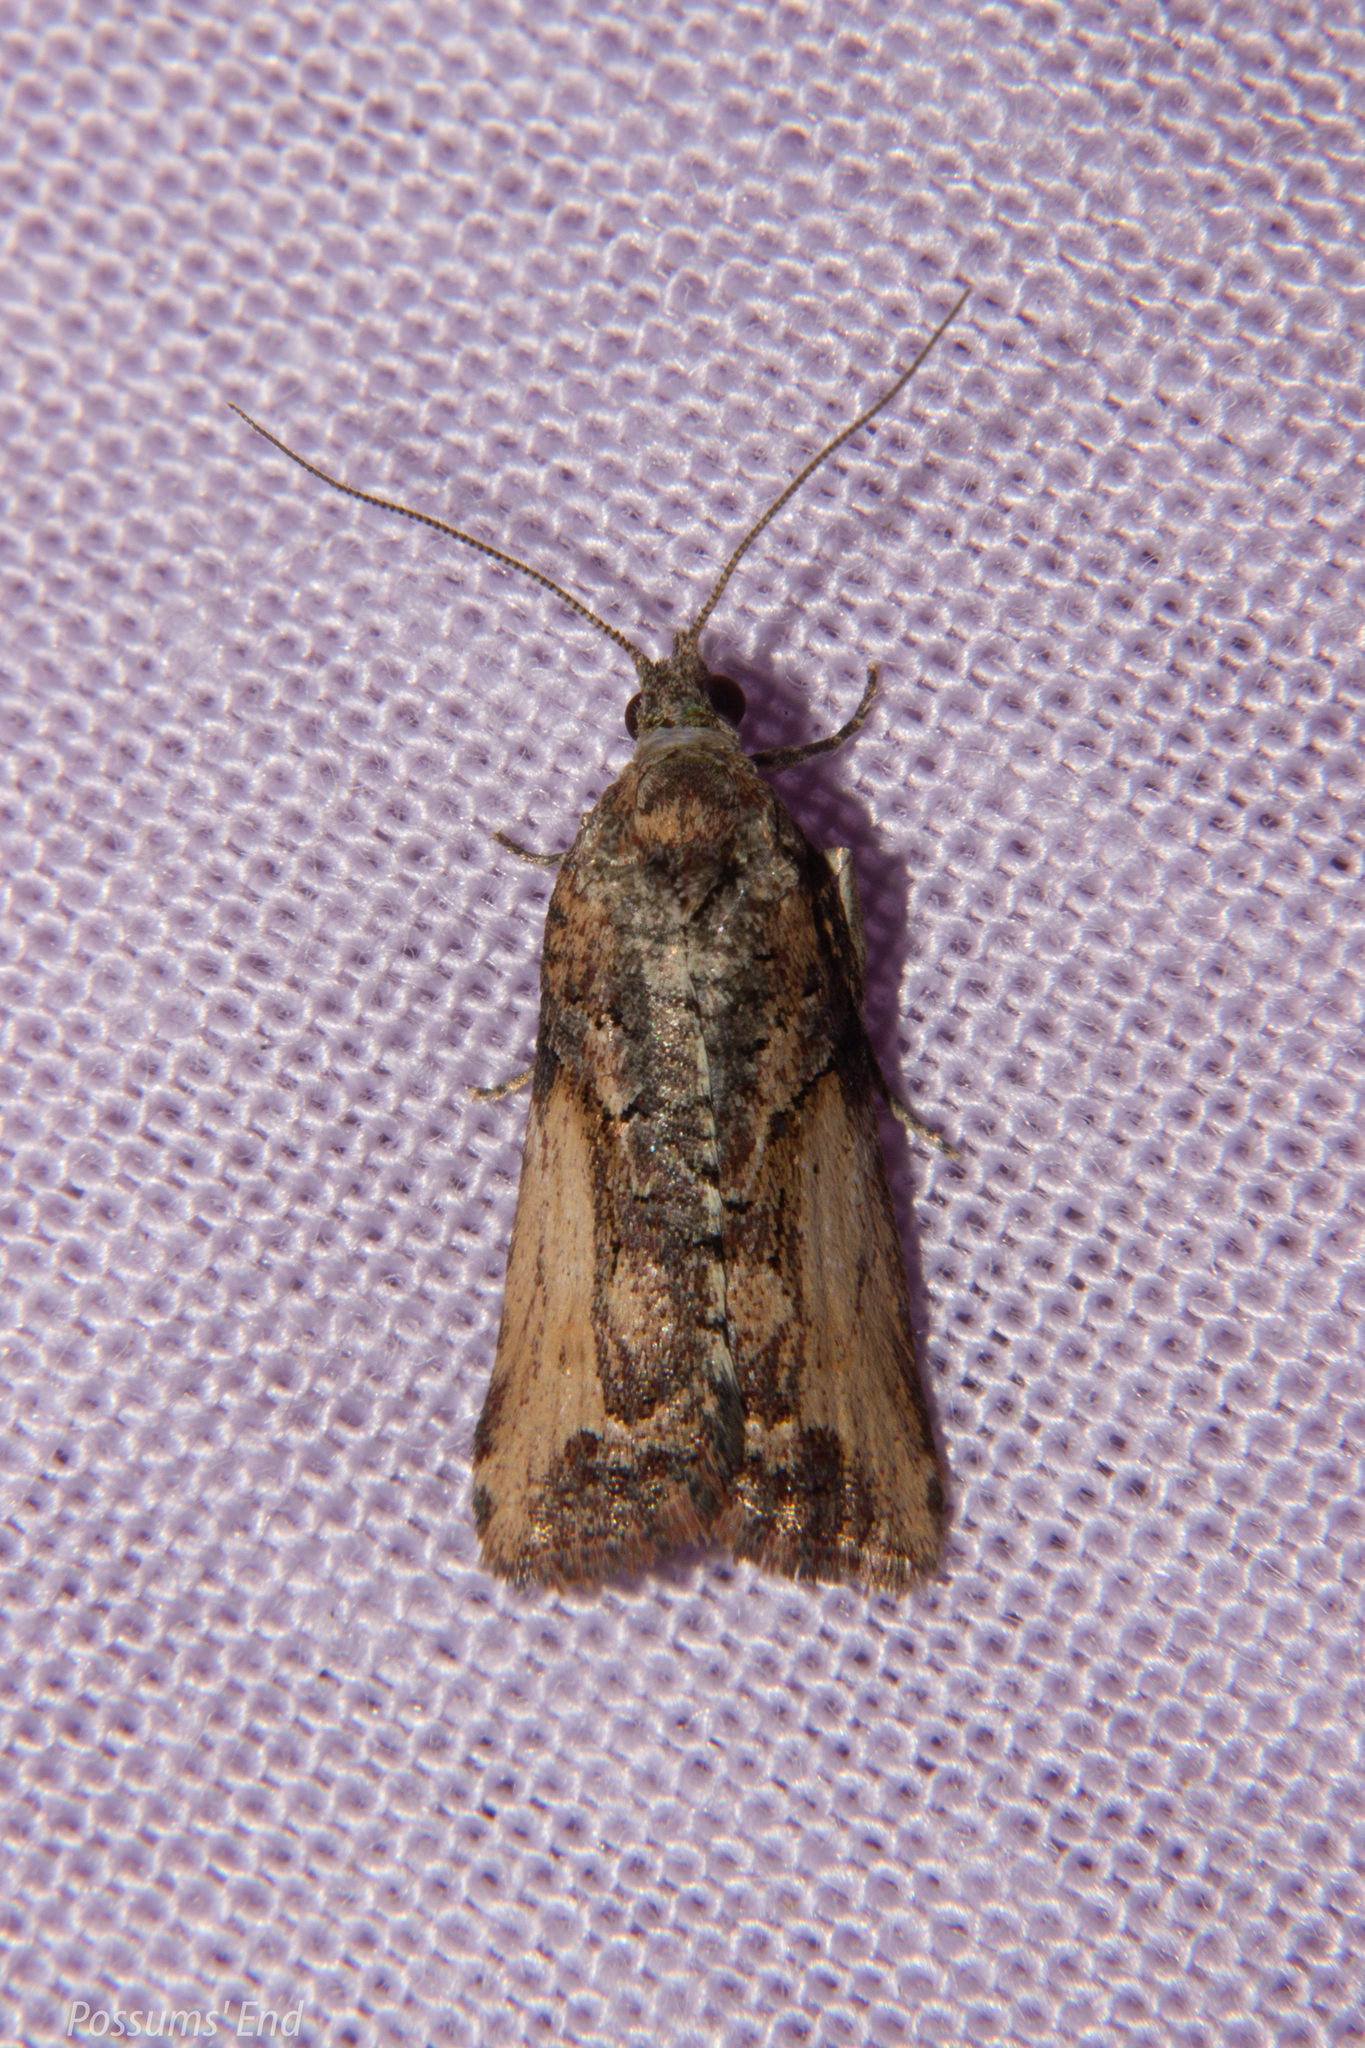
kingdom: Animalia
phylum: Arthropoda
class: Insecta
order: Lepidoptera
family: Tortricidae
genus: Harmologa
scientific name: Harmologa scoliastis
